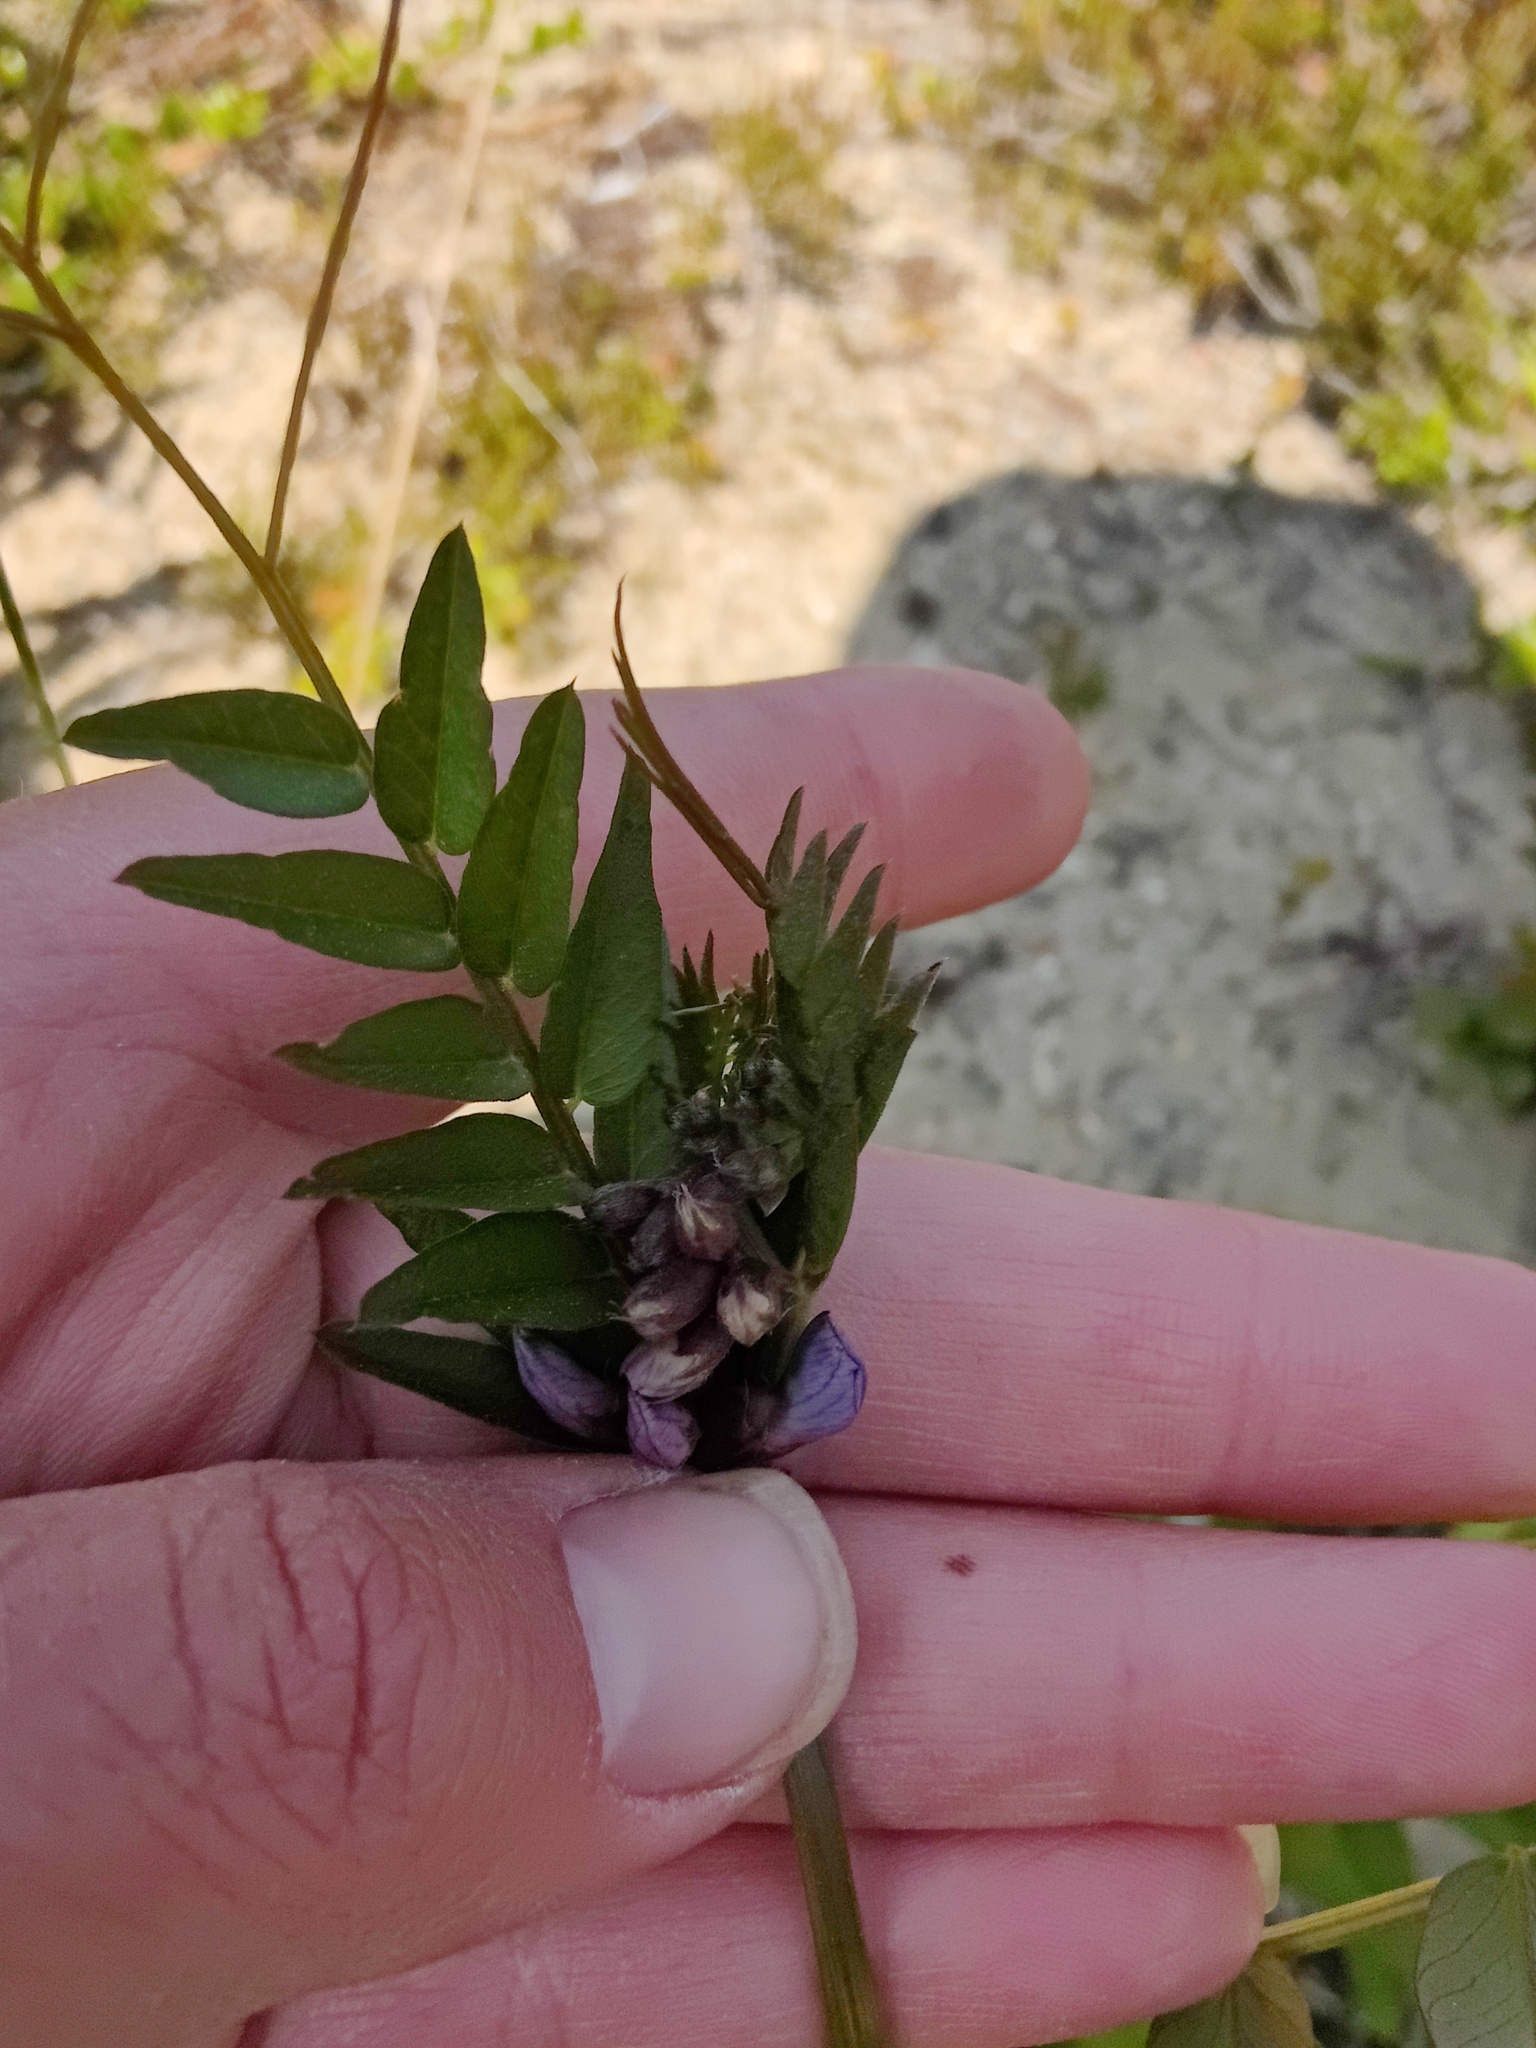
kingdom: Plantae
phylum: Tracheophyta
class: Magnoliopsida
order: Fabales
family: Fabaceae
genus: Vicia
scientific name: Vicia sepium
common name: Bush vetch
